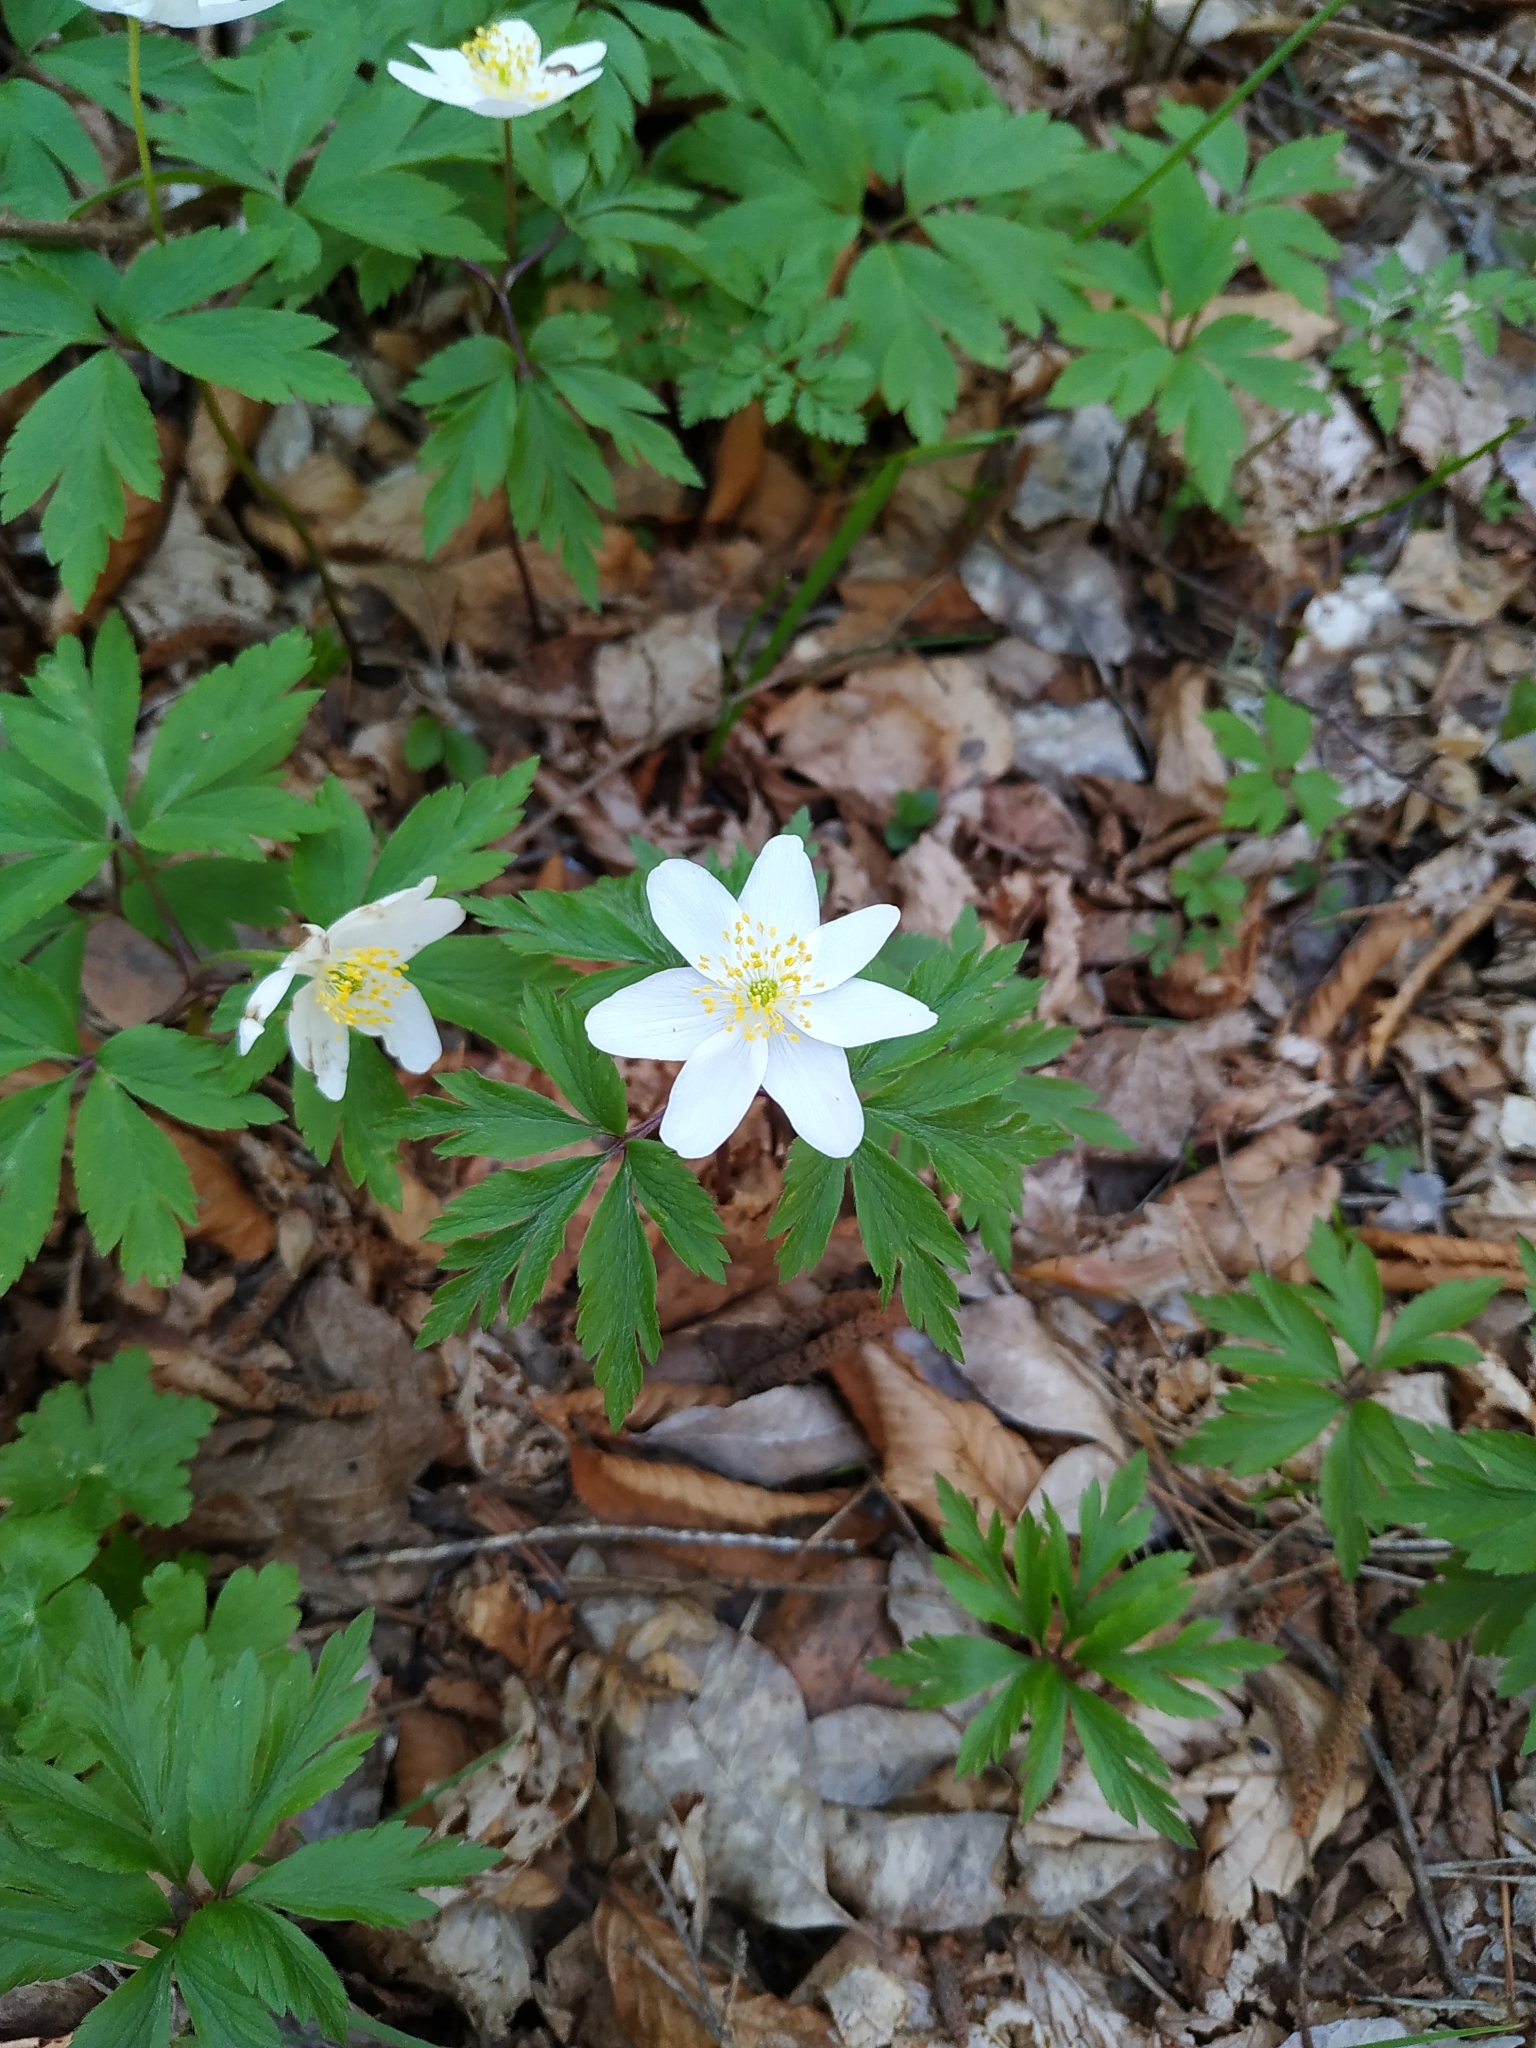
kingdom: Plantae
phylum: Tracheophyta
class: Magnoliopsida
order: Ranunculales
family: Ranunculaceae
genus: Anemone
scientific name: Anemone nemorosa
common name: Wood anemone
